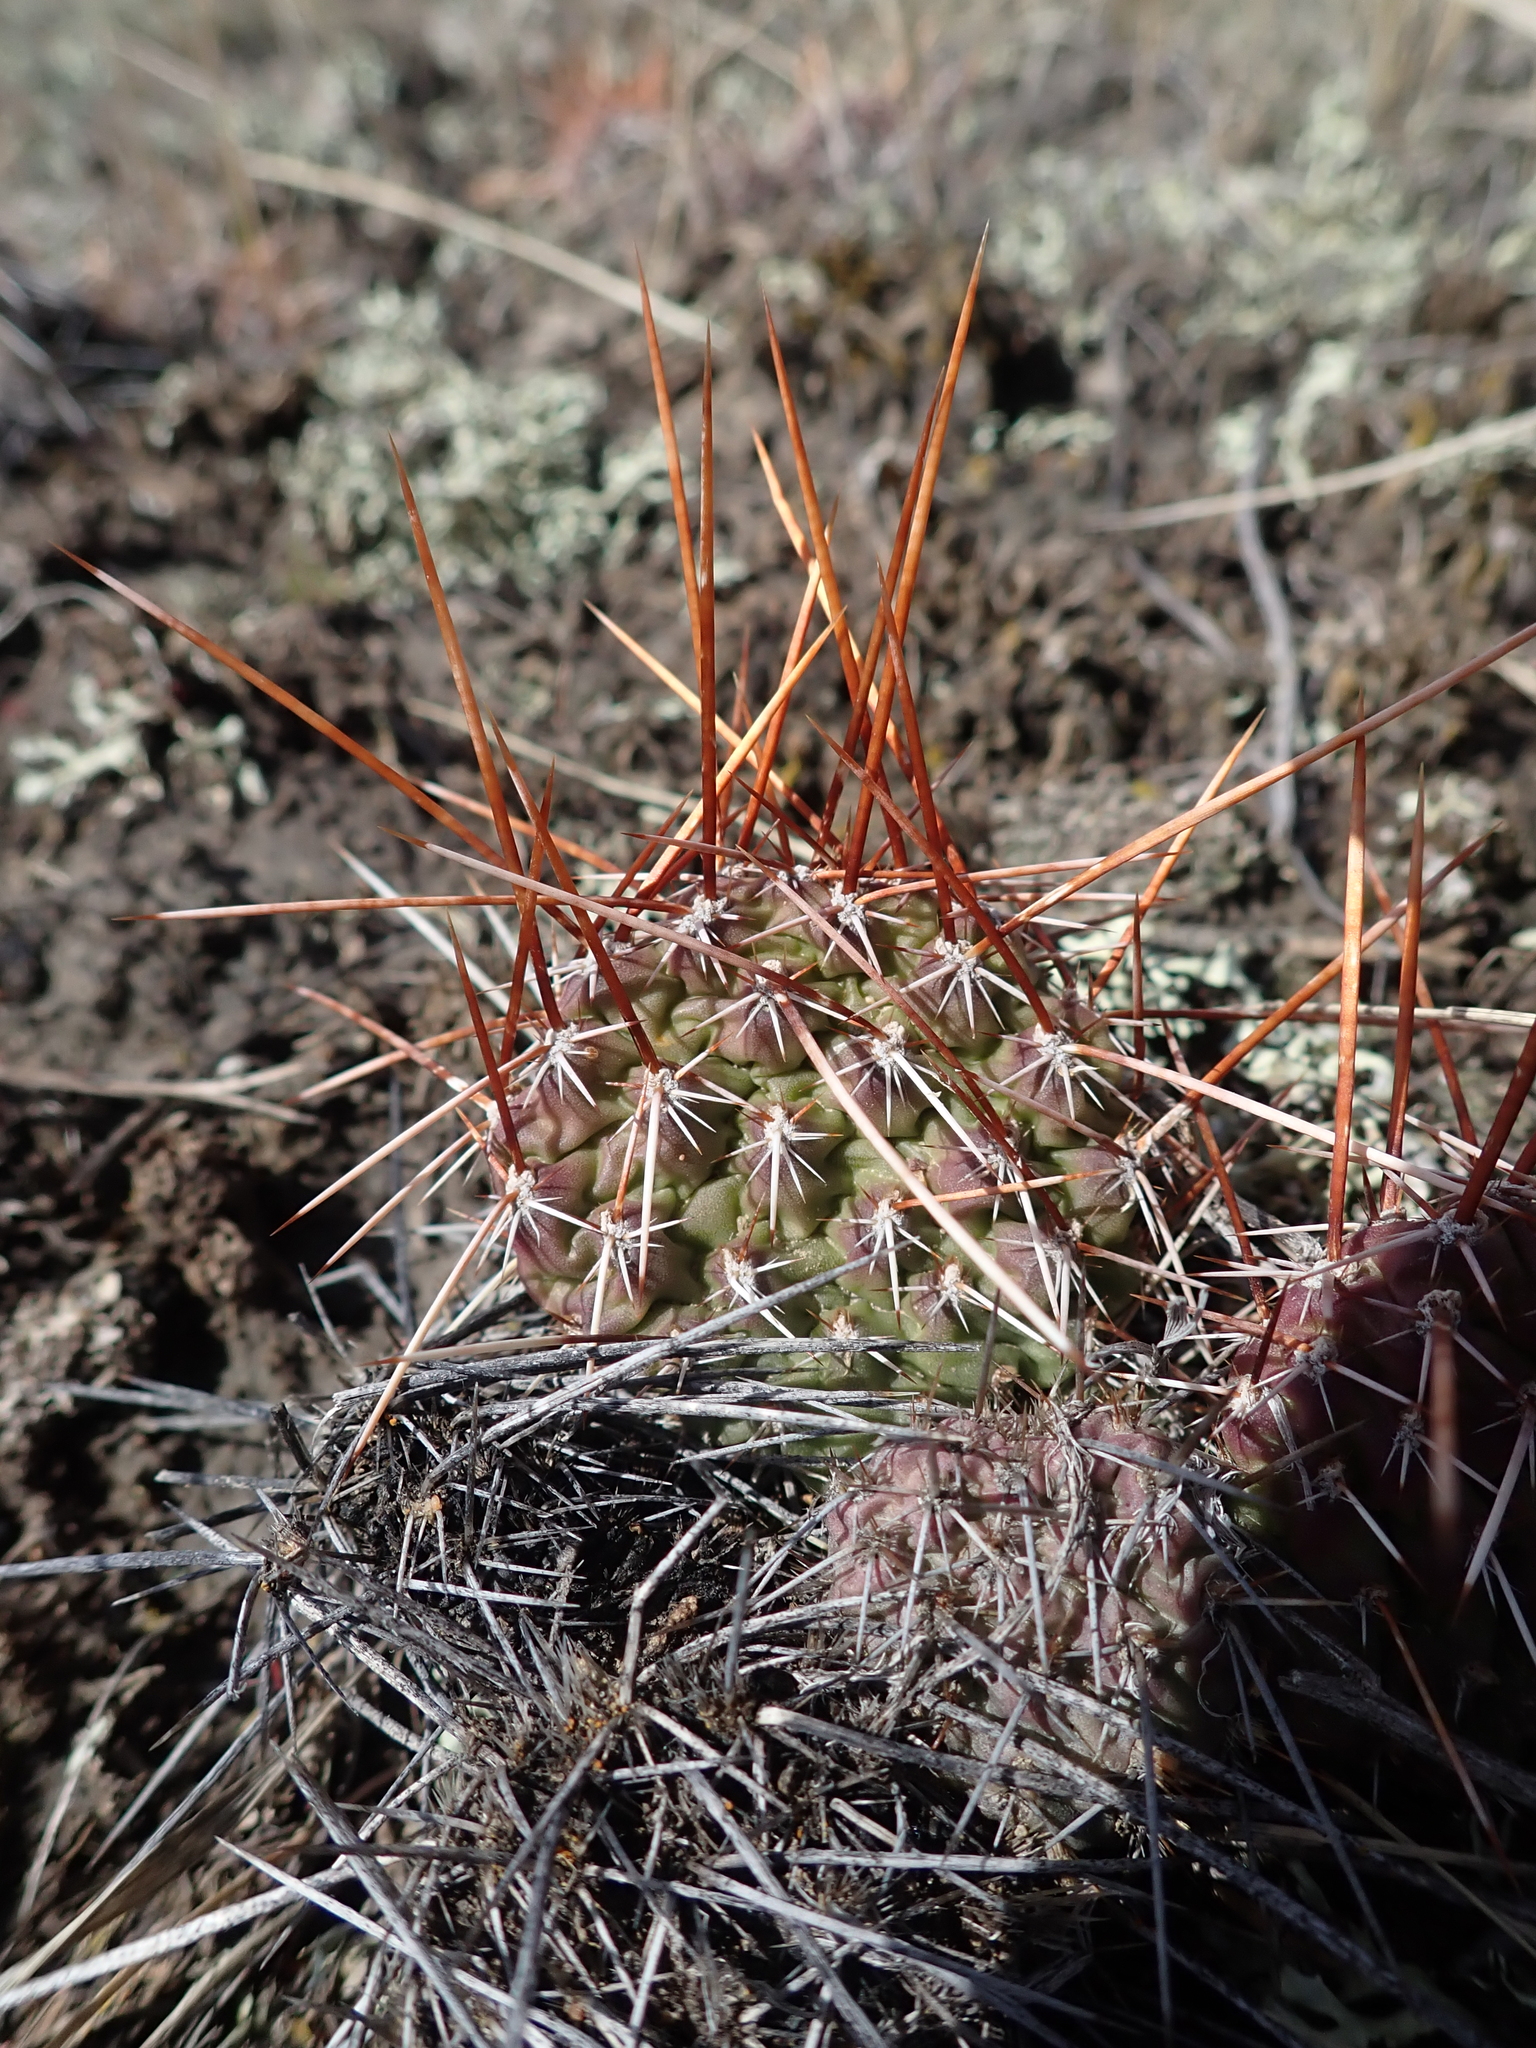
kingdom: Plantae
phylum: Tracheophyta
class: Magnoliopsida
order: Caryophyllales
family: Cactaceae
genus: Opuntia
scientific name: Opuntia polyacantha
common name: Plains prickly-pear
